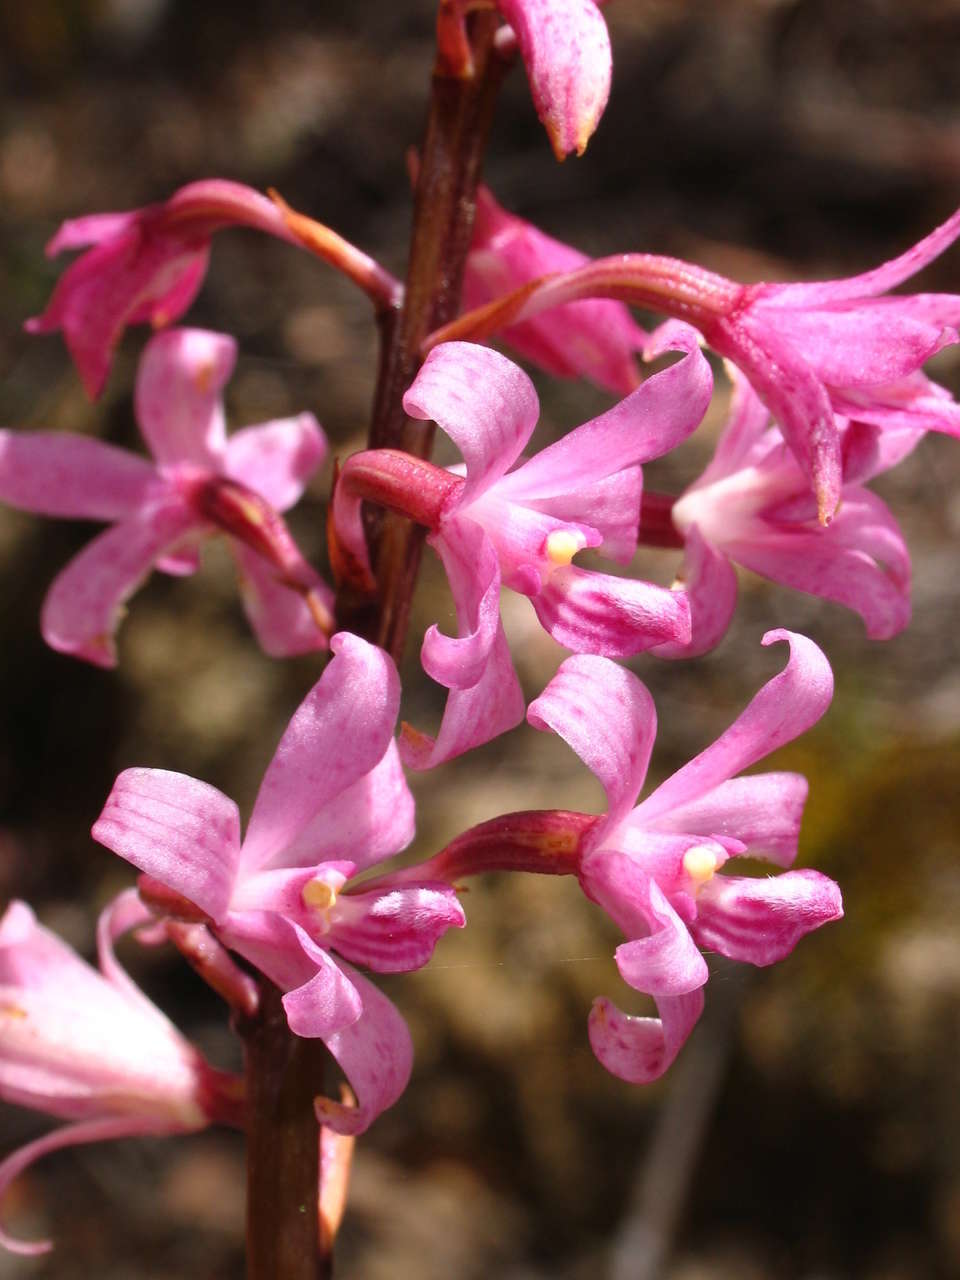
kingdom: Plantae
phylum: Tracheophyta
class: Liliopsida
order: Asparagales
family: Orchidaceae
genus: Dipodium
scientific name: Dipodium roseum
